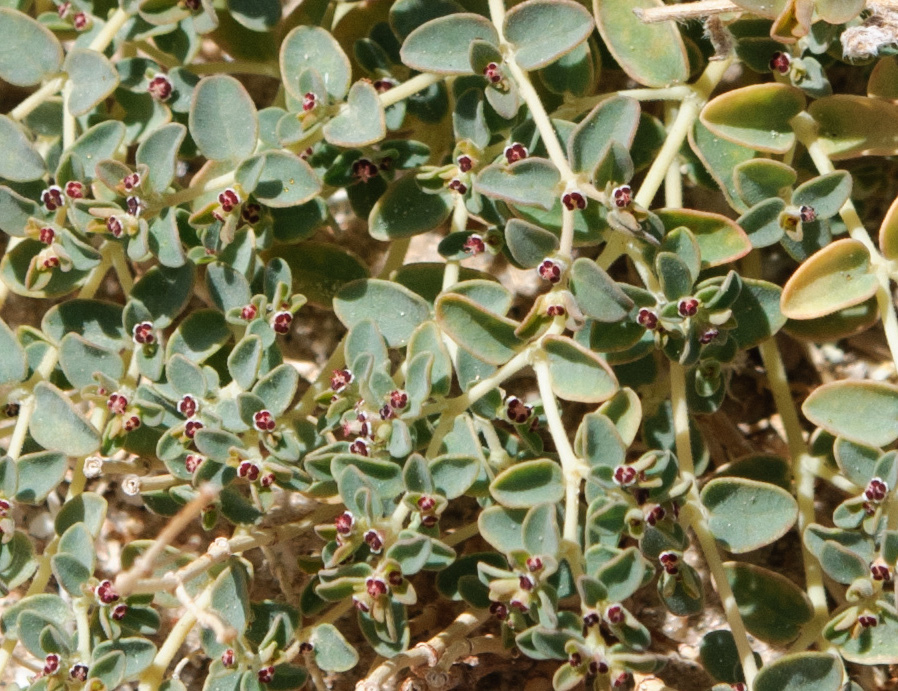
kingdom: Plantae
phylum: Tracheophyta
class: Magnoliopsida
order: Malpighiales
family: Euphorbiaceae
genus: Euphorbia
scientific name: Euphorbia polycarpa
